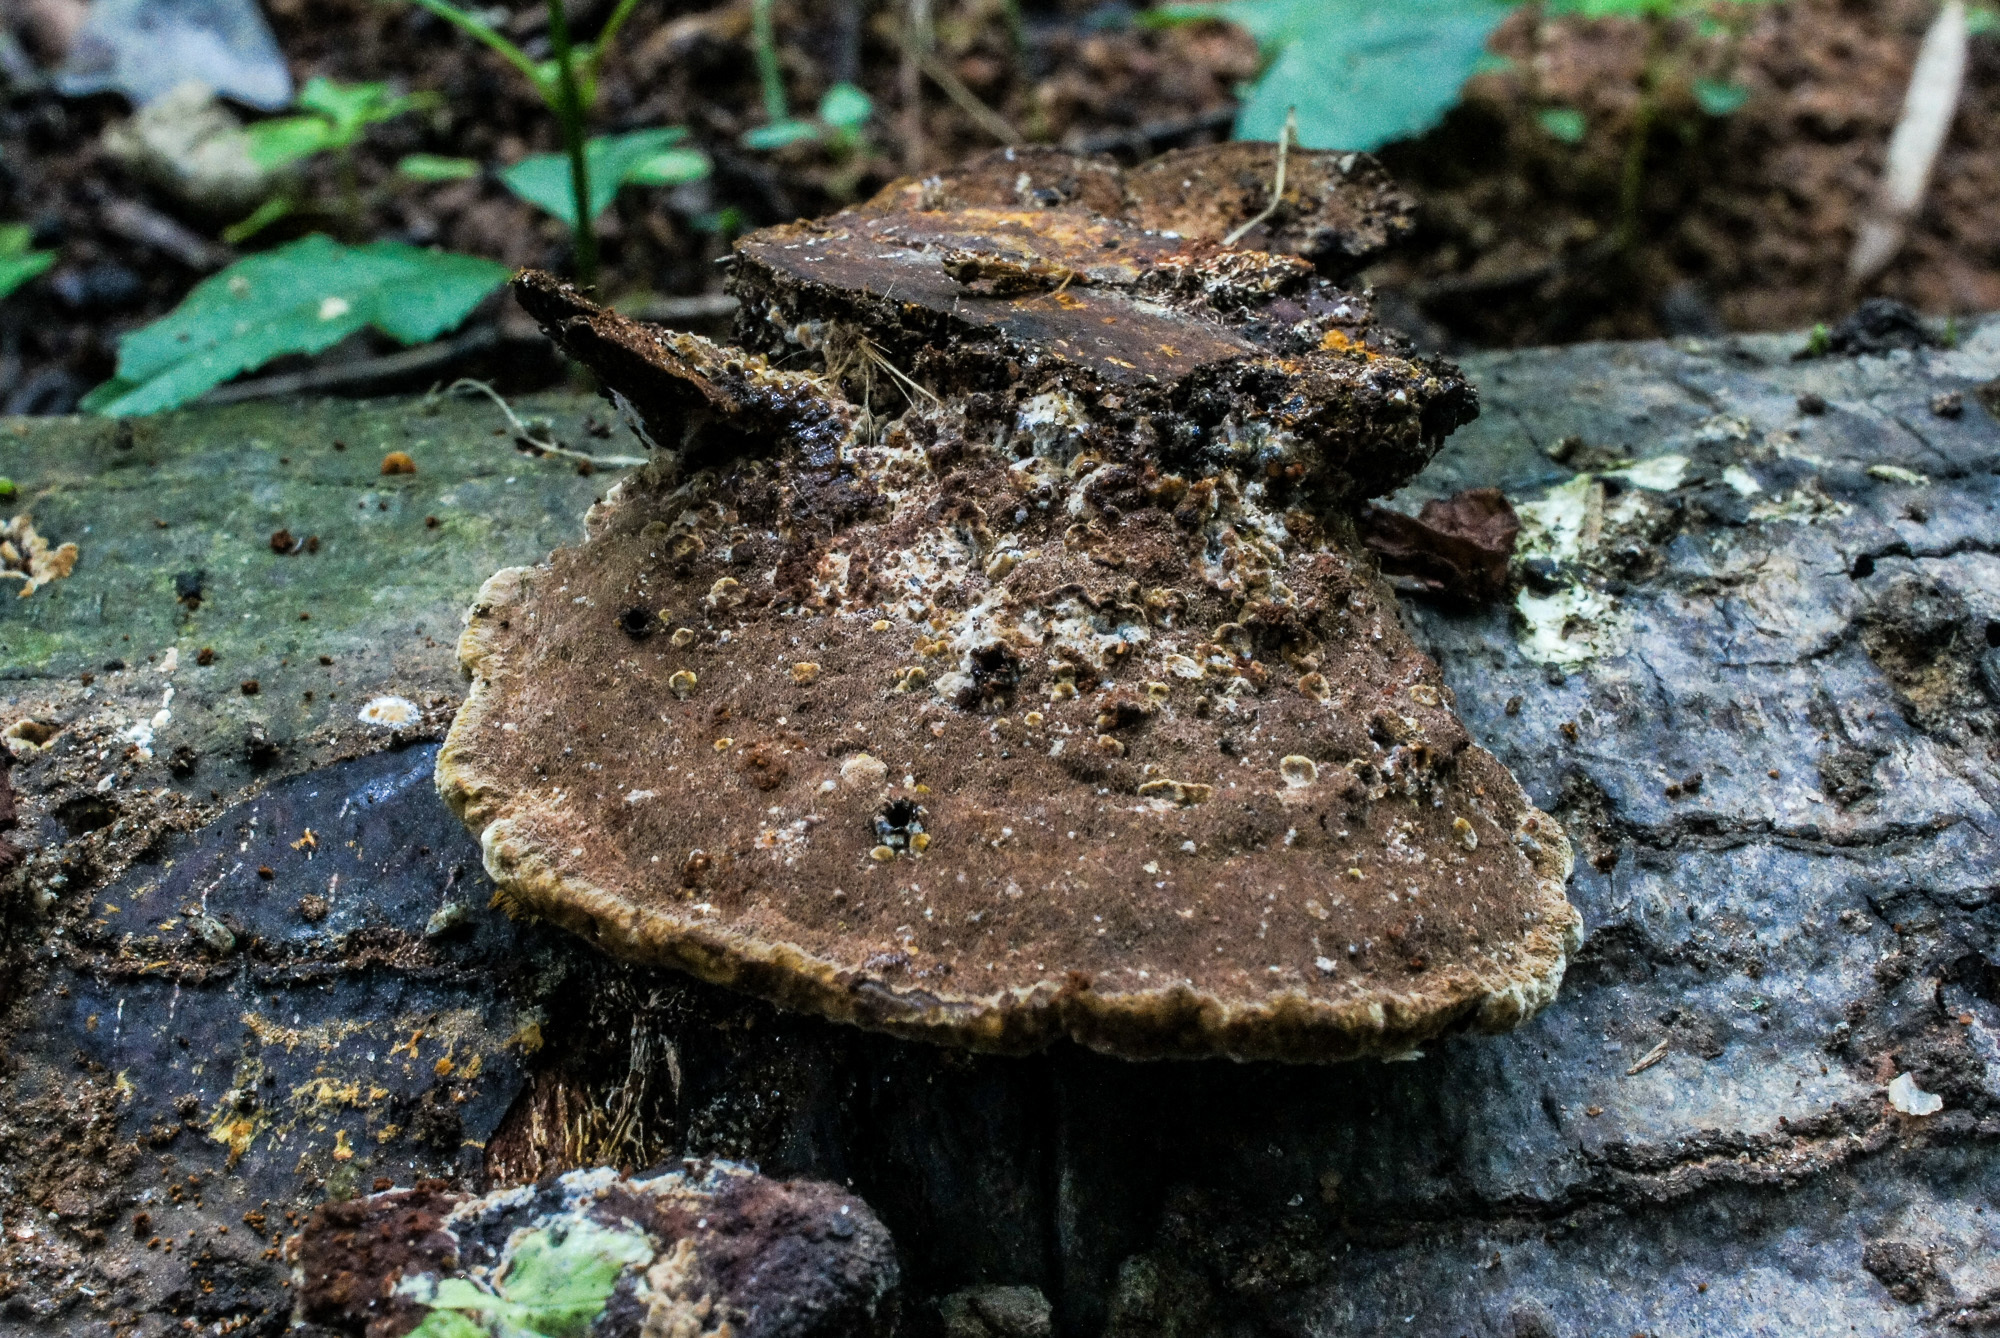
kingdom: Fungi
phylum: Basidiomycota
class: Agaricomycetes
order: Hymenochaetales
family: Hymenochaetaceae
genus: Phellinus
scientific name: Phellinus gilvus
